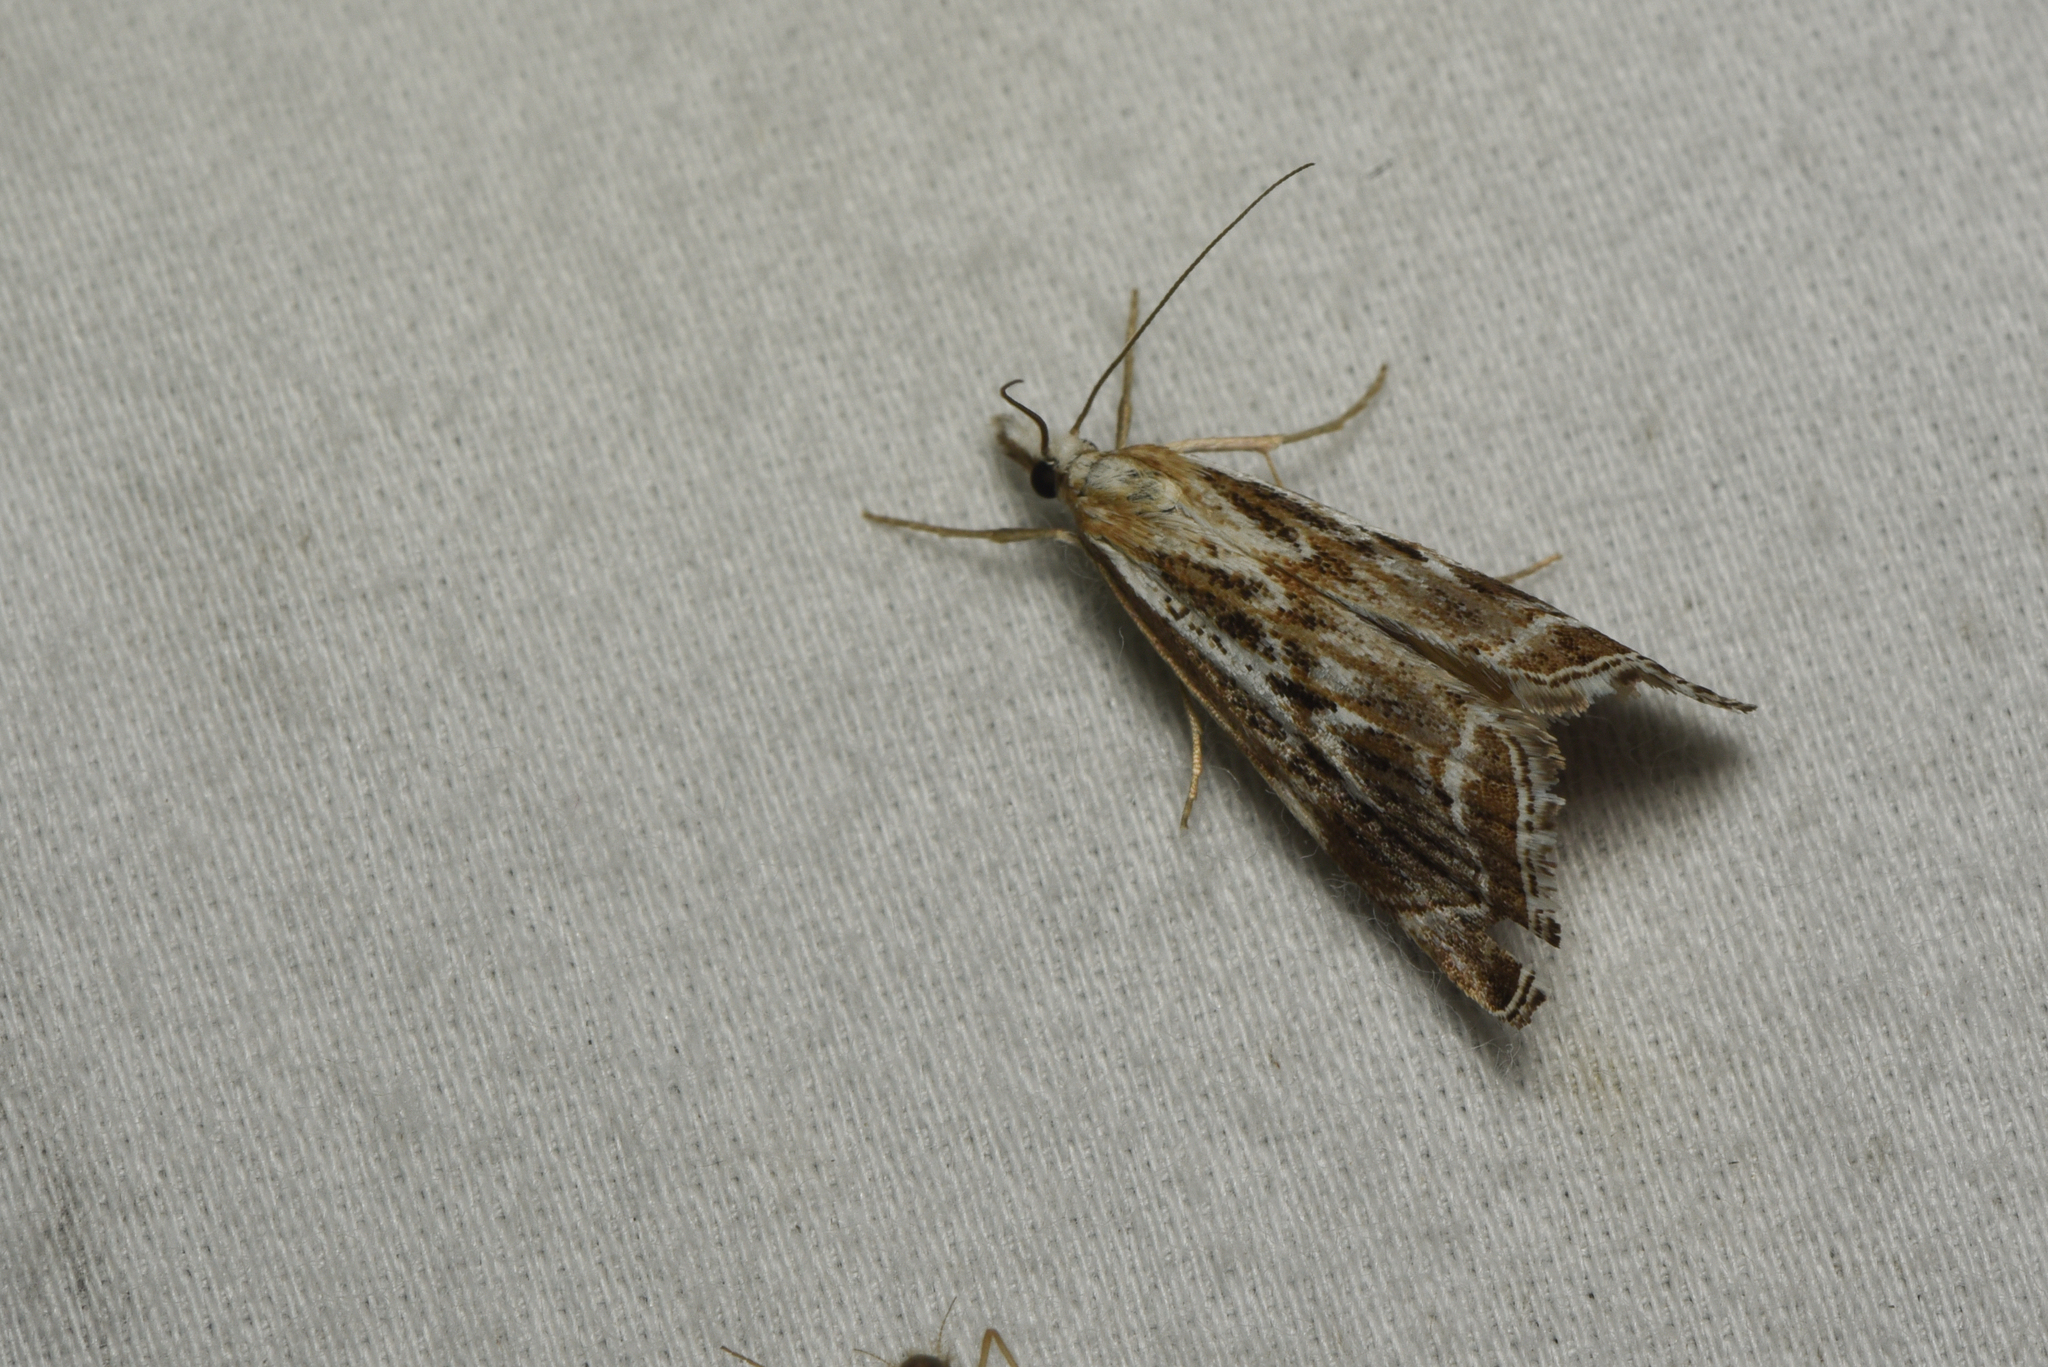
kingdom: Animalia
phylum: Arthropoda
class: Insecta
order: Lepidoptera
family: Crambidae
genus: Catoptria
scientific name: Catoptria oregonicus
